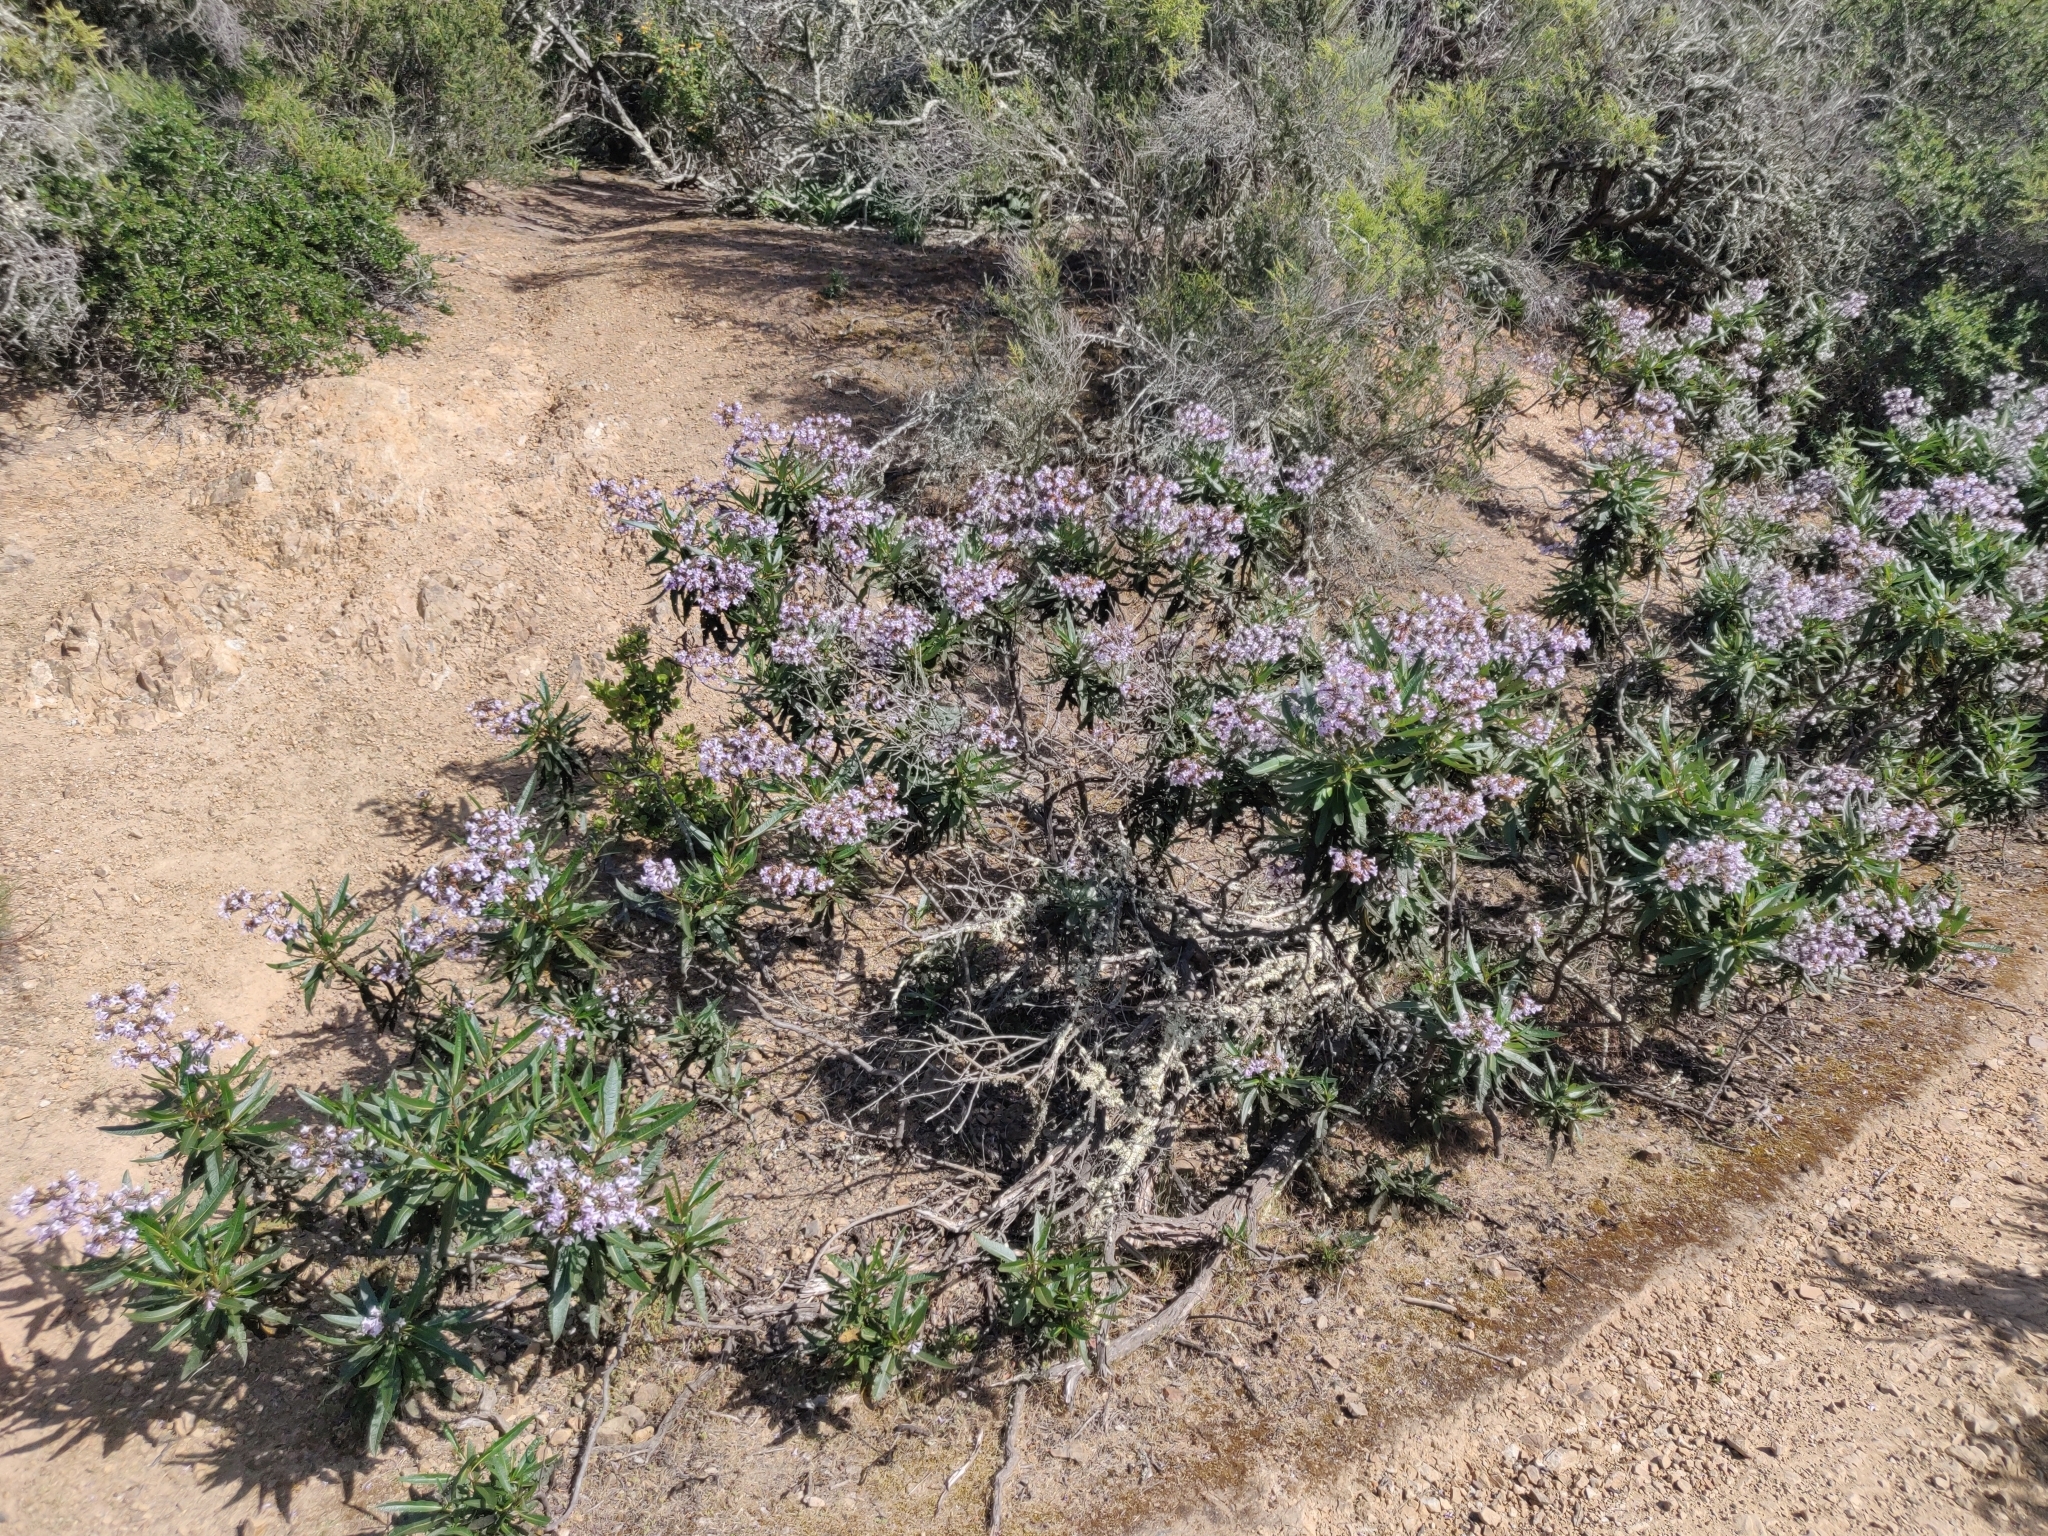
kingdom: Plantae
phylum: Tracheophyta
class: Magnoliopsida
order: Boraginales
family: Namaceae
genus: Eriodictyon
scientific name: Eriodictyon californicum
